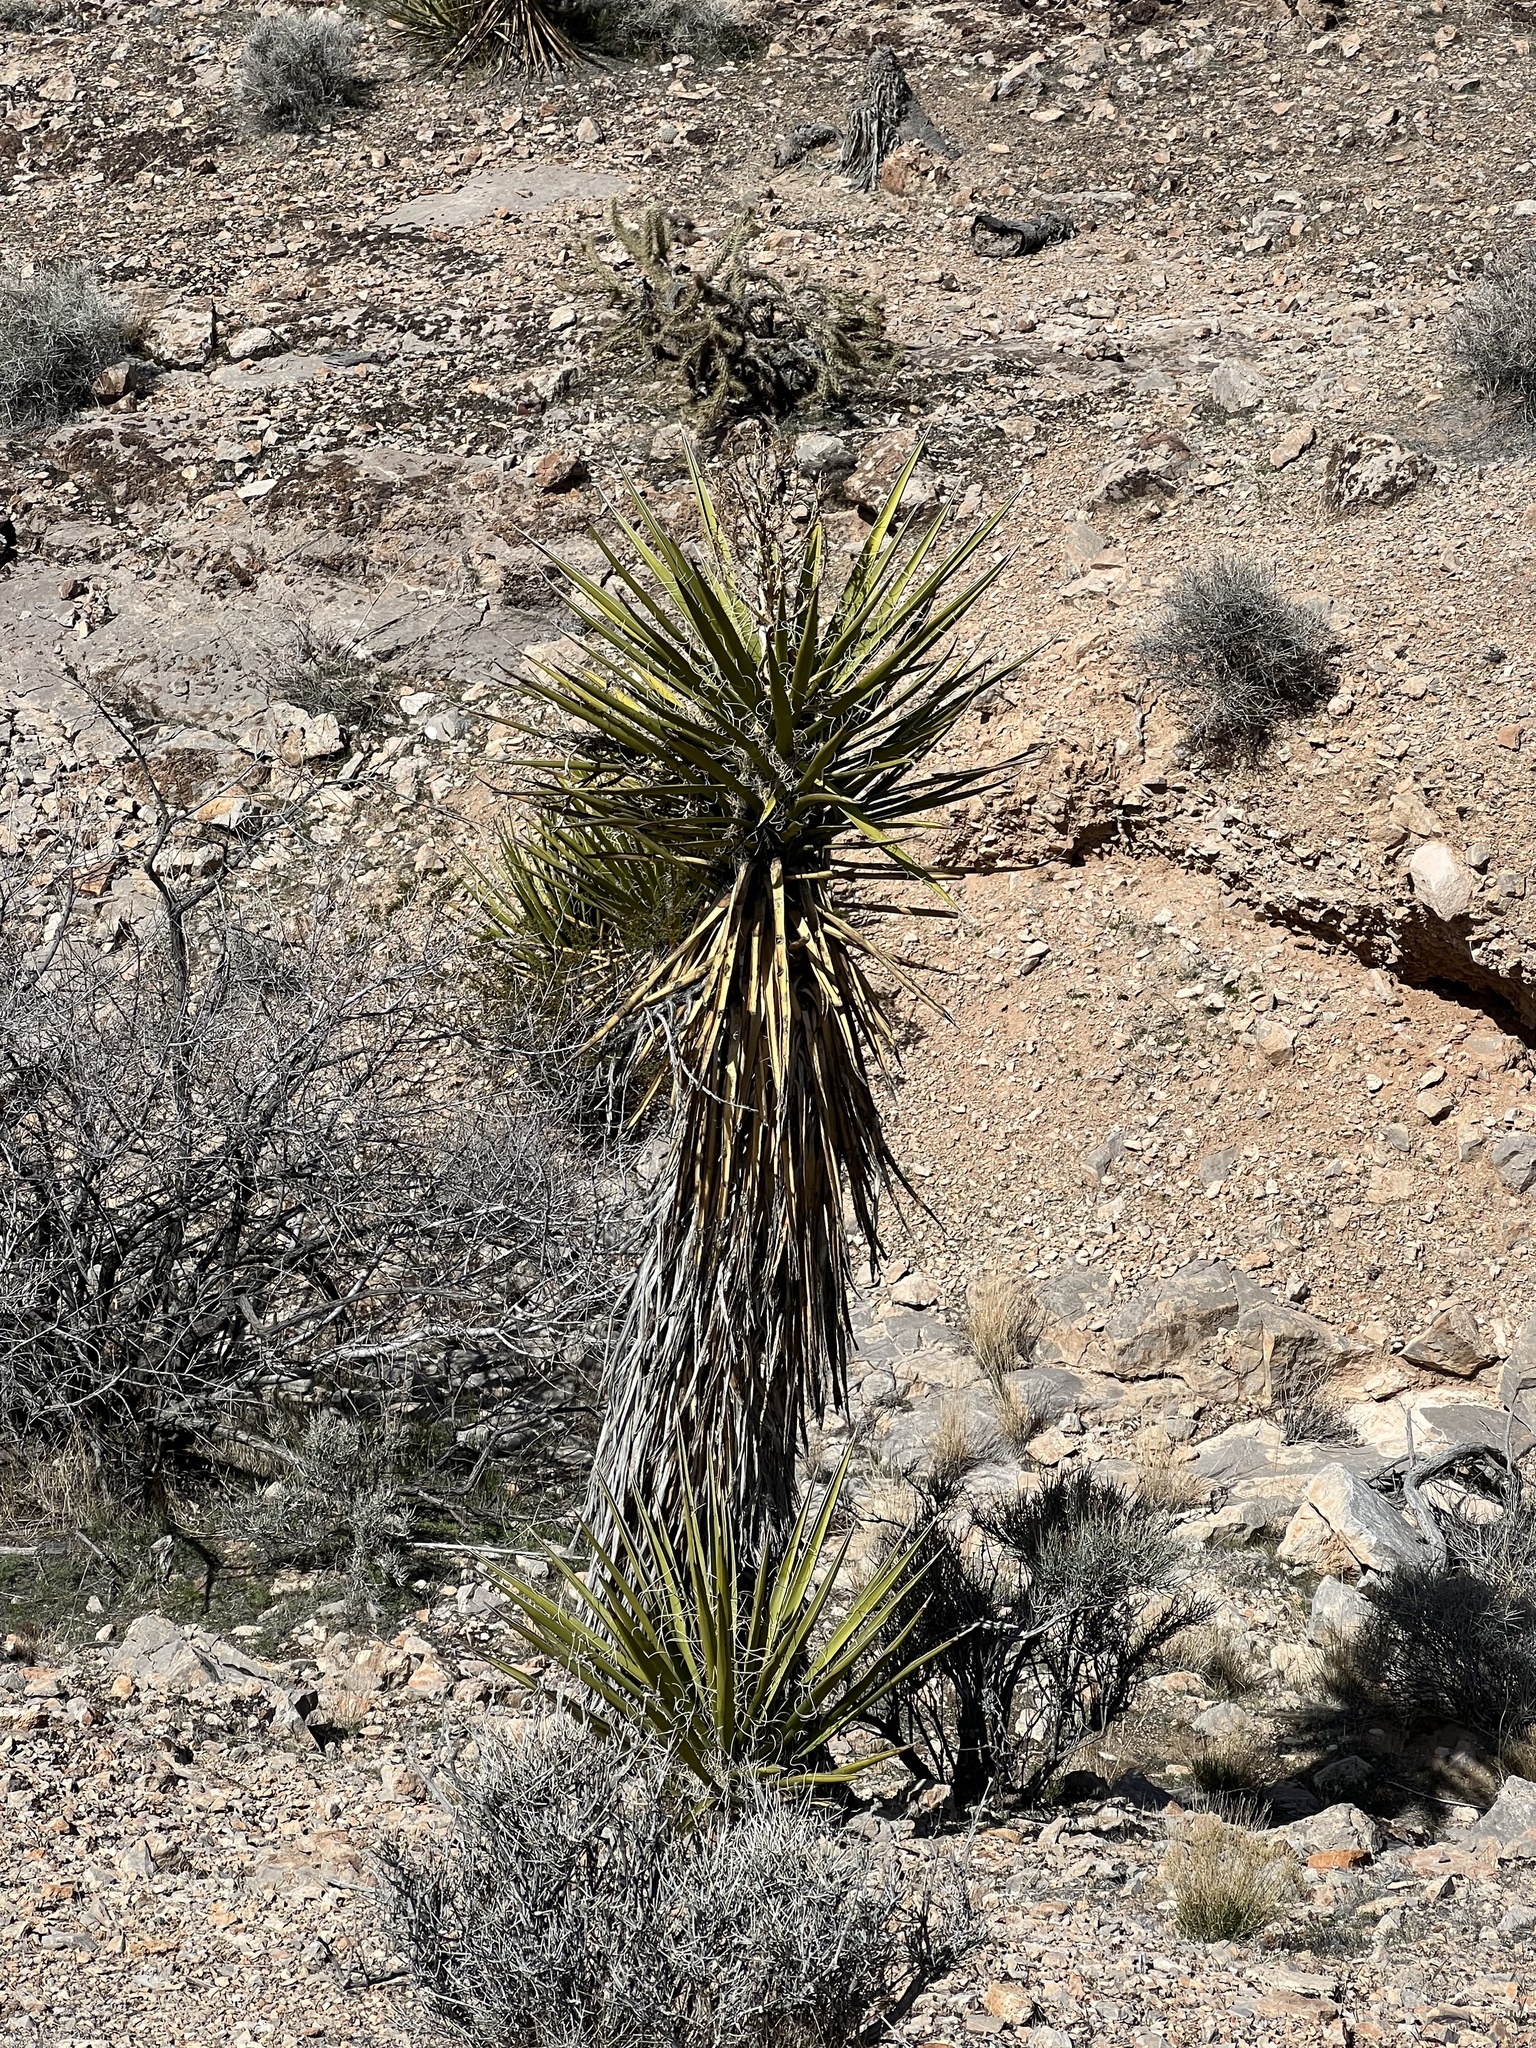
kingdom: Plantae
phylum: Tracheophyta
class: Liliopsida
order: Asparagales
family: Asparagaceae
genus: Yucca
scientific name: Yucca schidigera
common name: Mojave yucca
